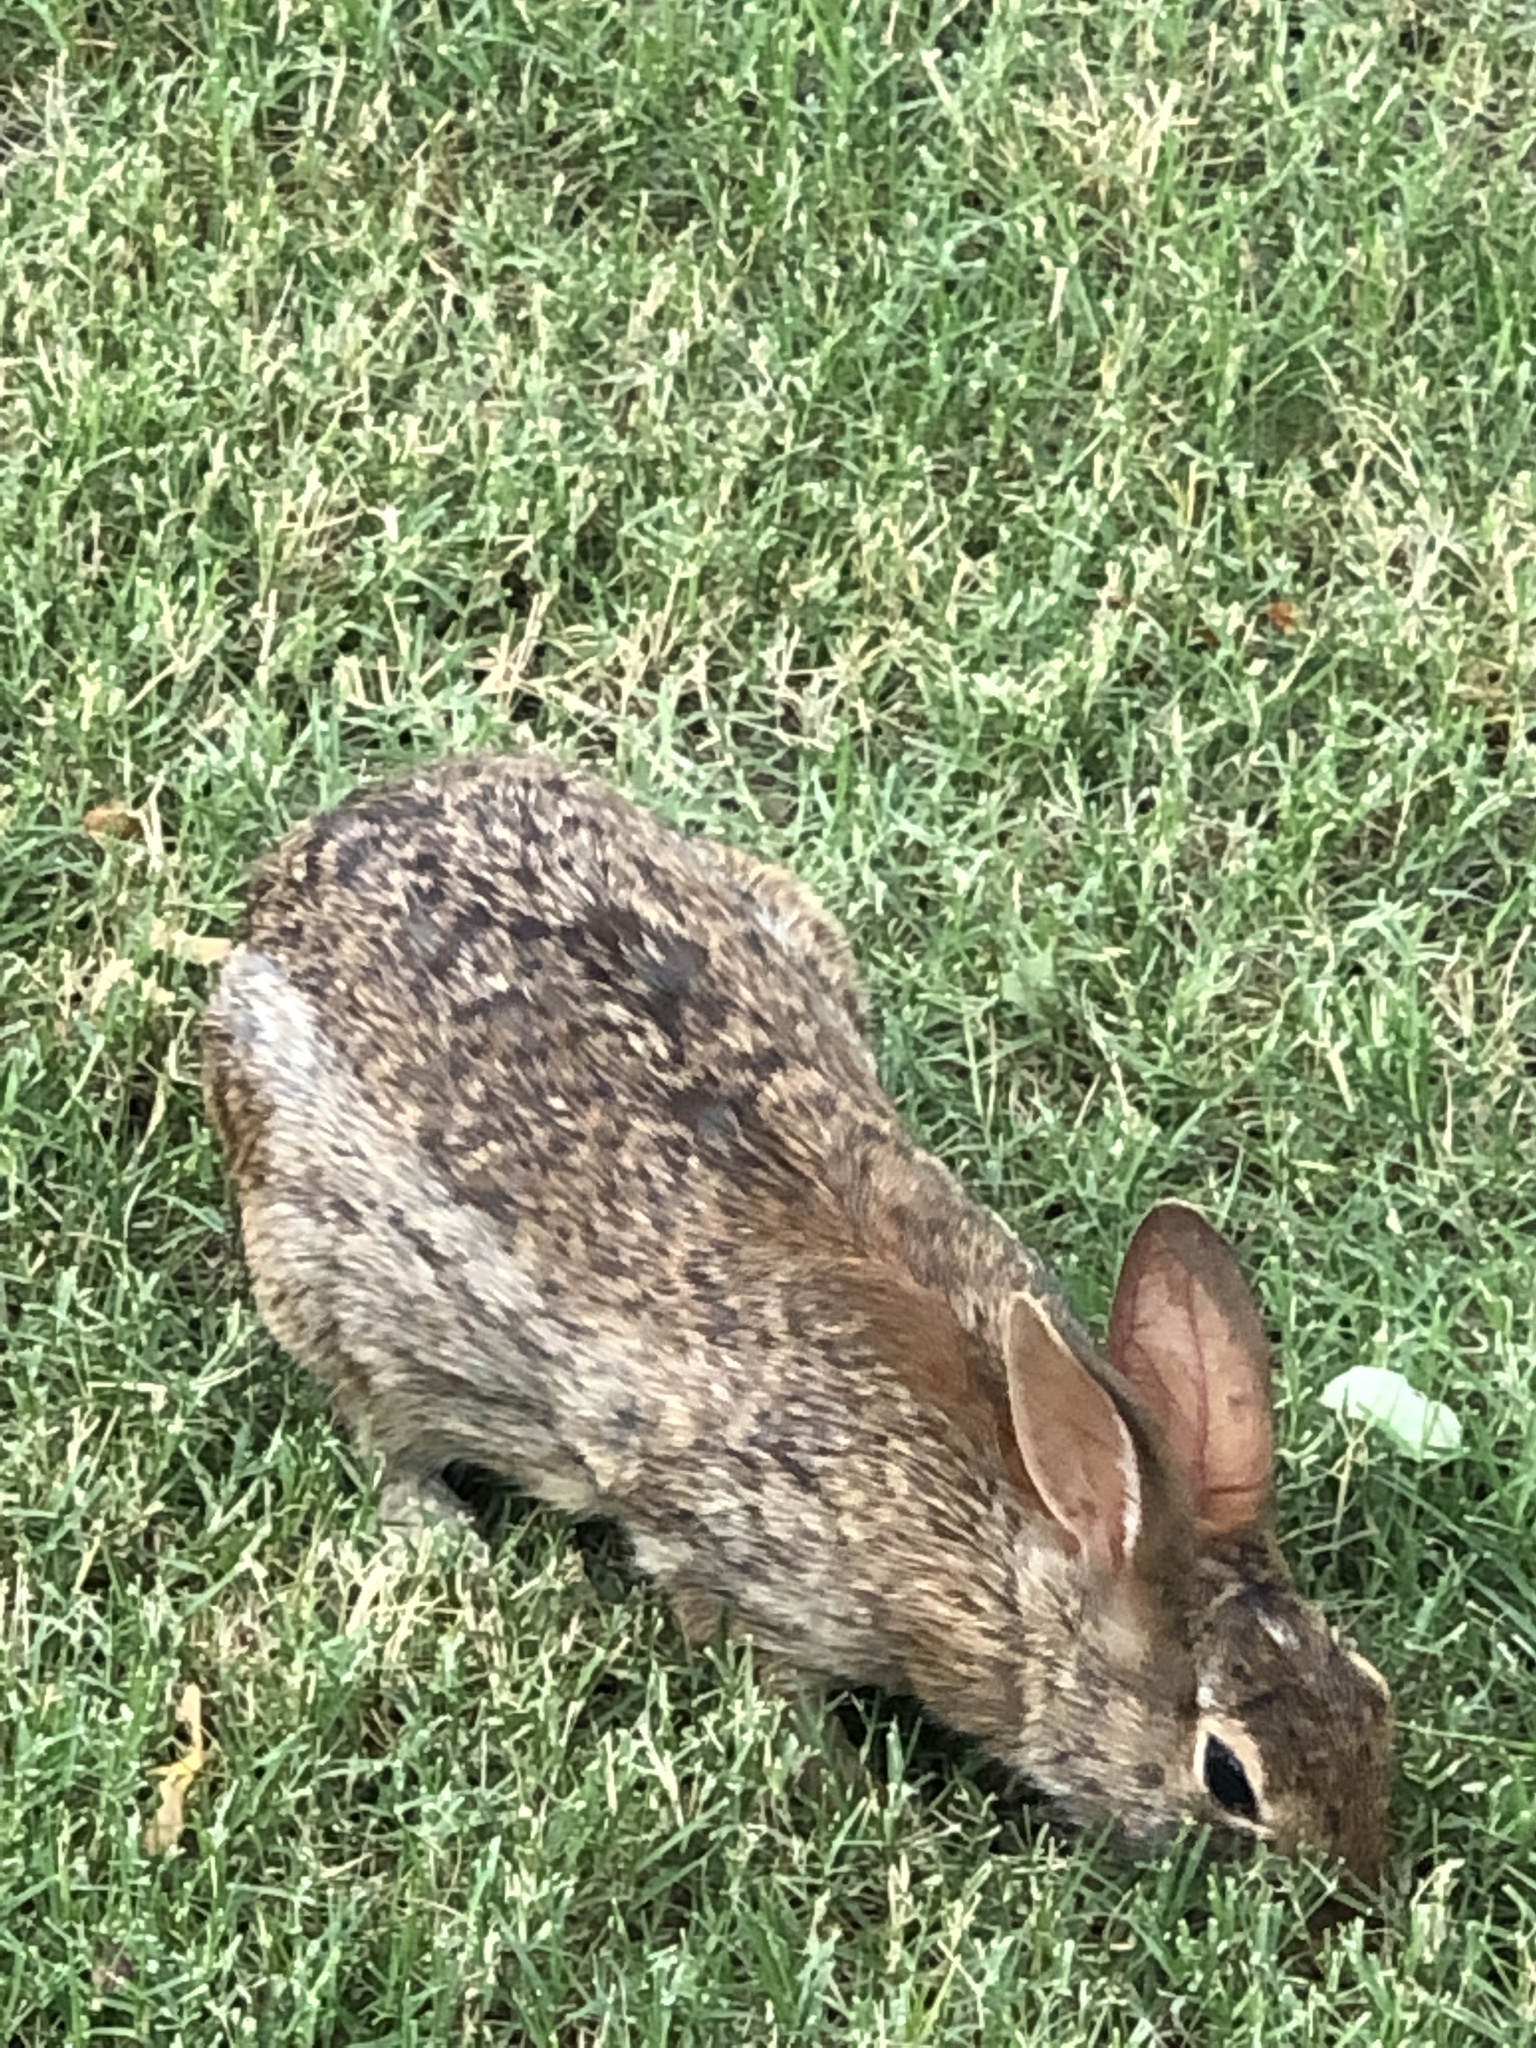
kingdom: Animalia
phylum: Chordata
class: Mammalia
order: Lagomorpha
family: Leporidae
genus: Sylvilagus
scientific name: Sylvilagus floridanus
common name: Eastern cottontail
